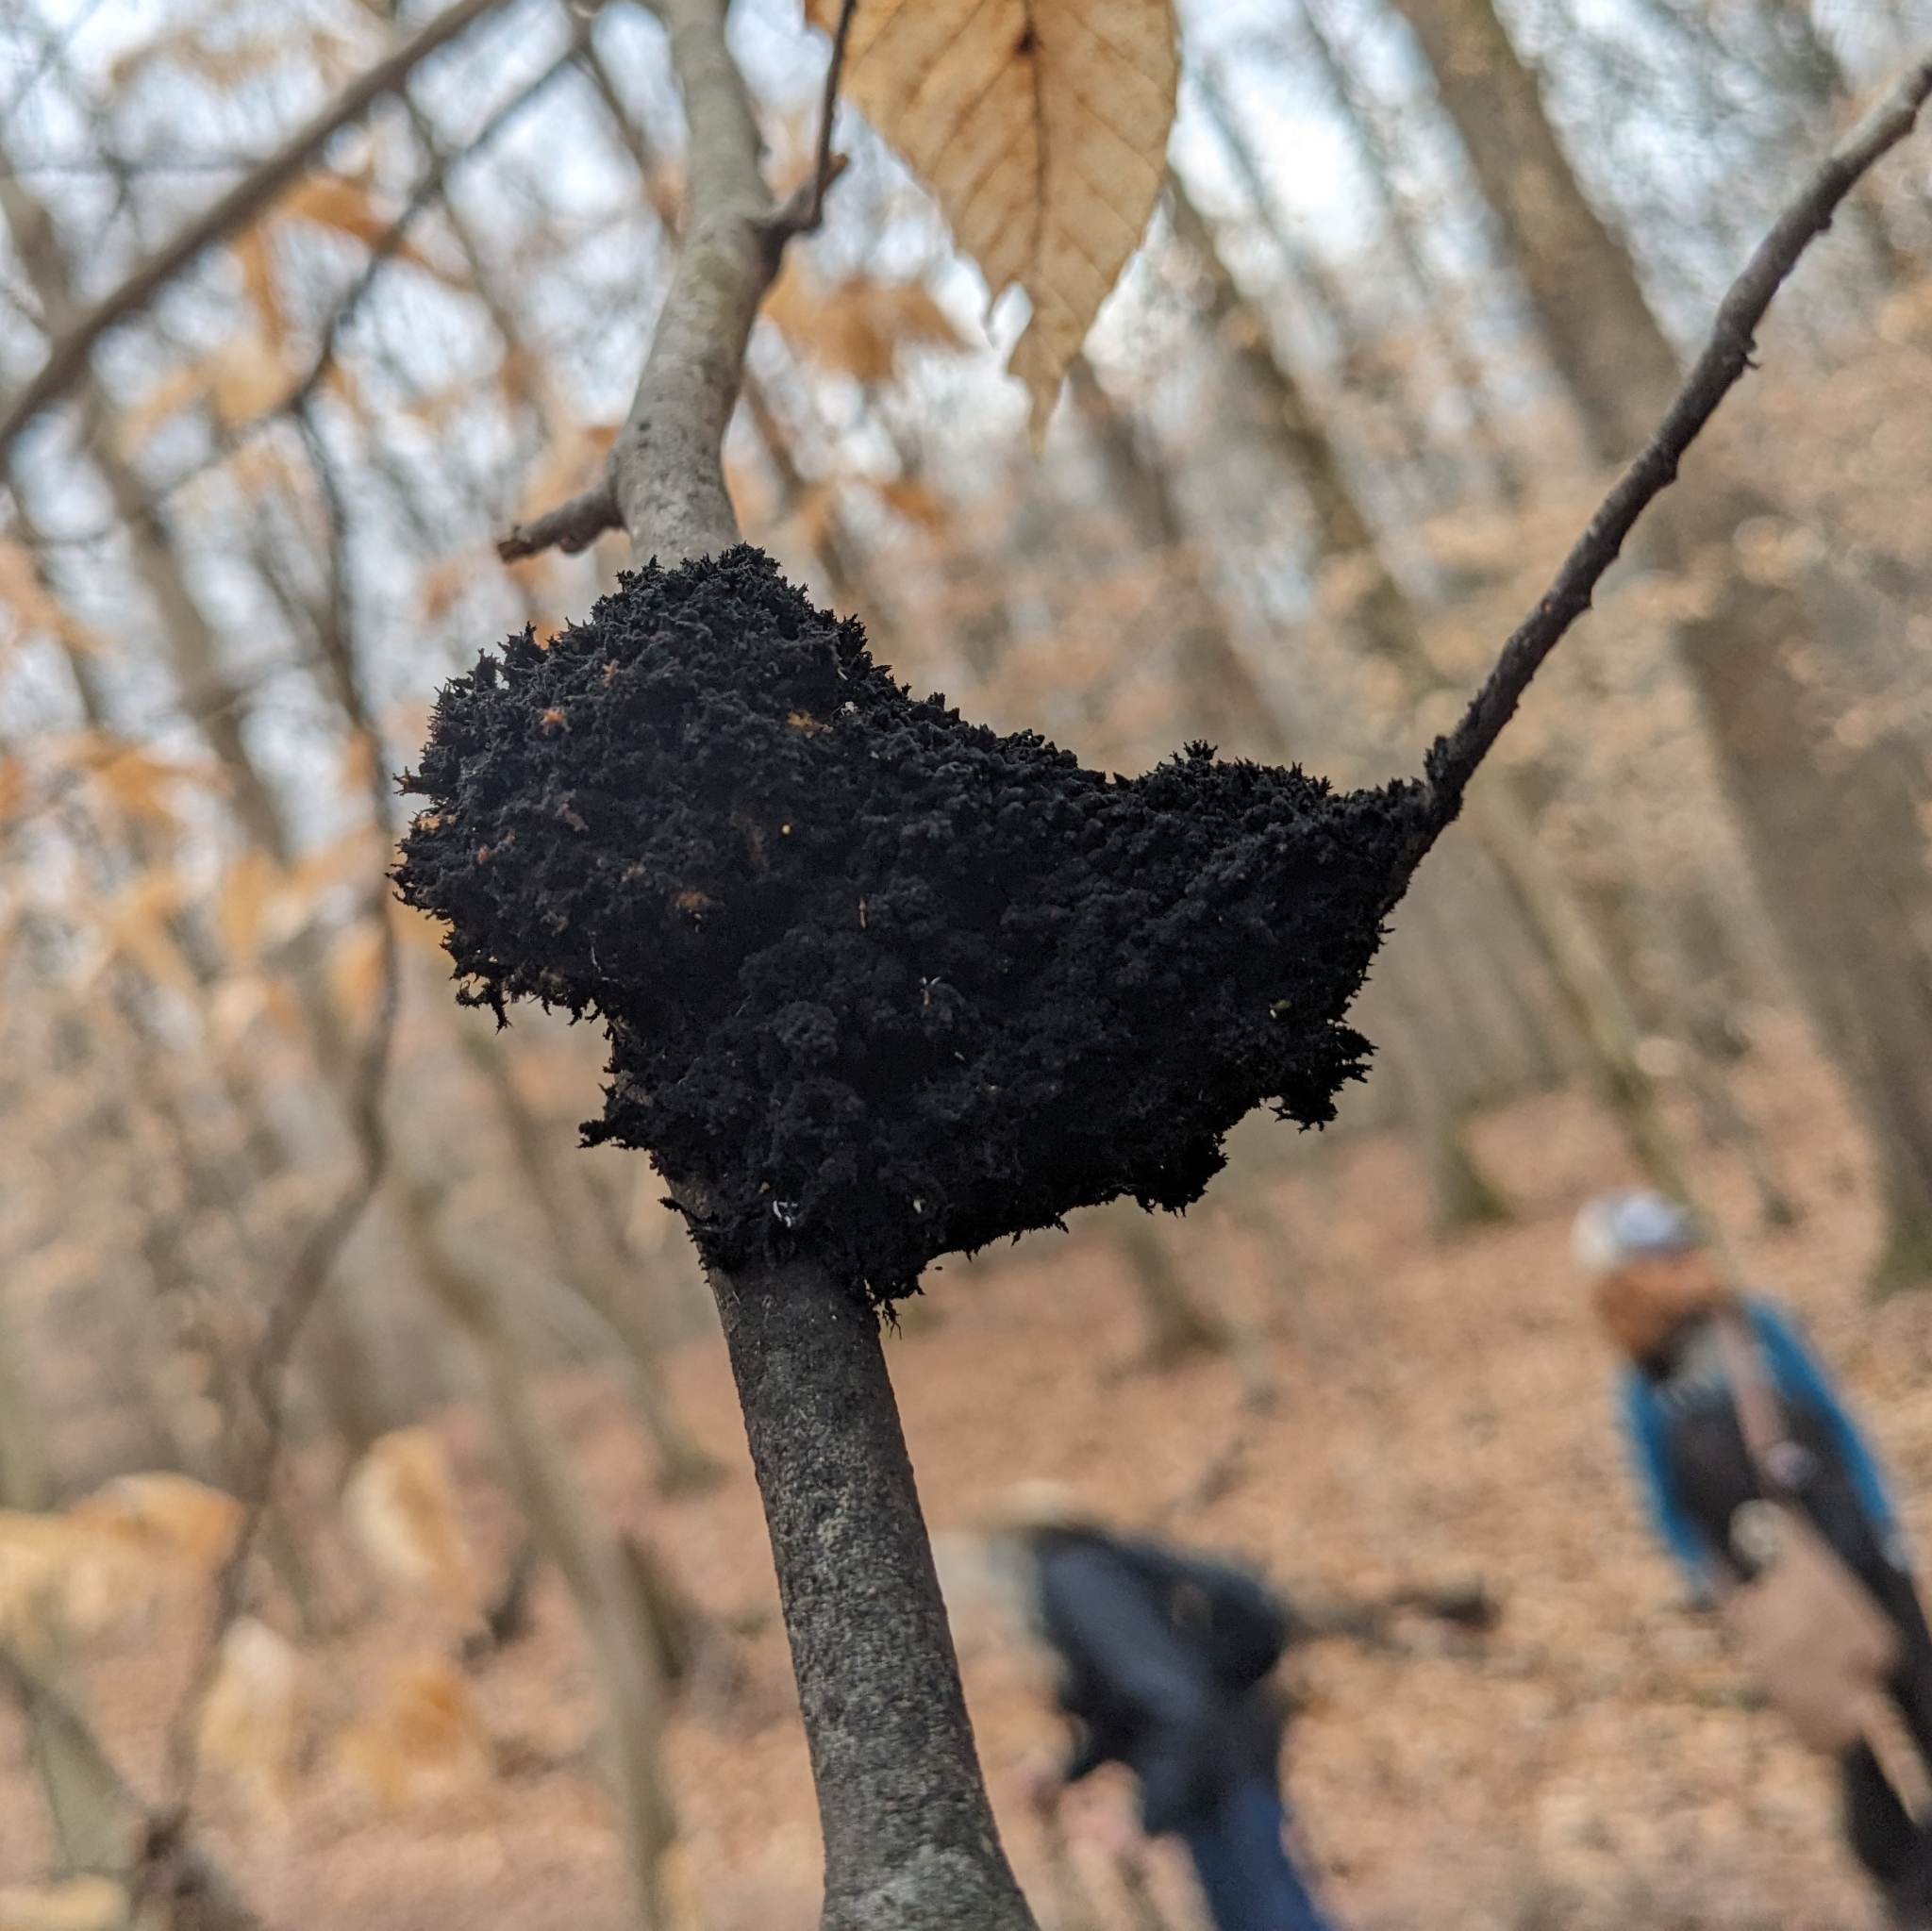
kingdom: Fungi
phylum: Ascomycota
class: Dothideomycetes
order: Capnodiales
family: Capnodiaceae
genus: Scorias
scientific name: Scorias spongiosa
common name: Black sooty mold
